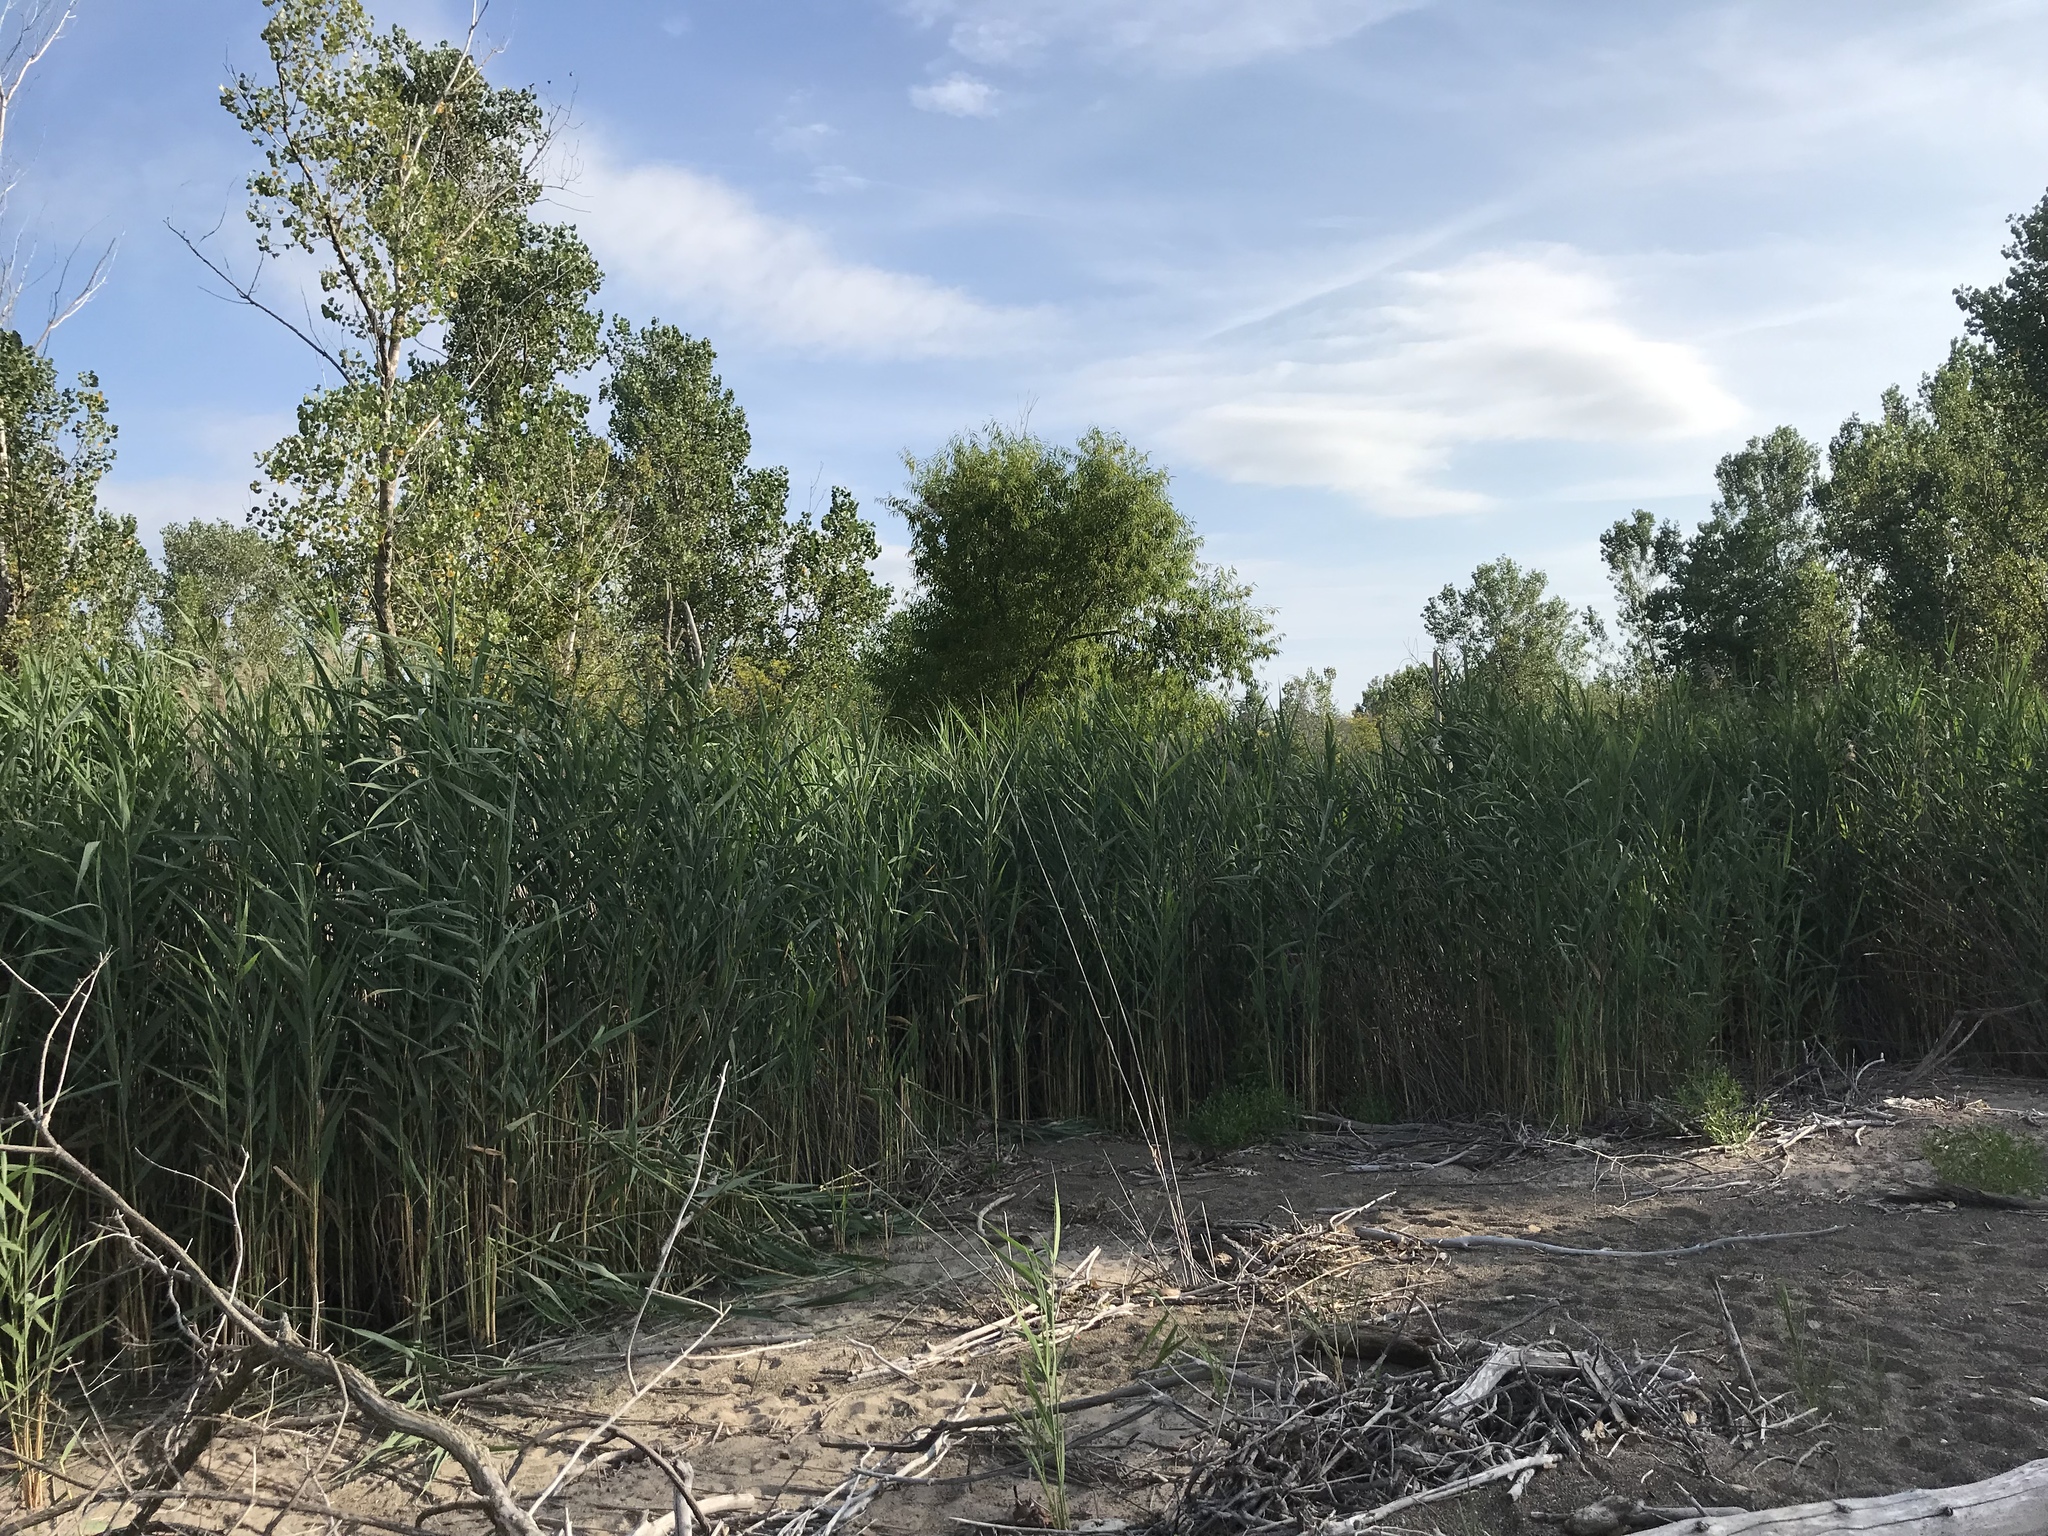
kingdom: Plantae
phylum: Tracheophyta
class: Liliopsida
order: Poales
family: Poaceae
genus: Phragmites
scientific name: Phragmites australis
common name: Common reed
